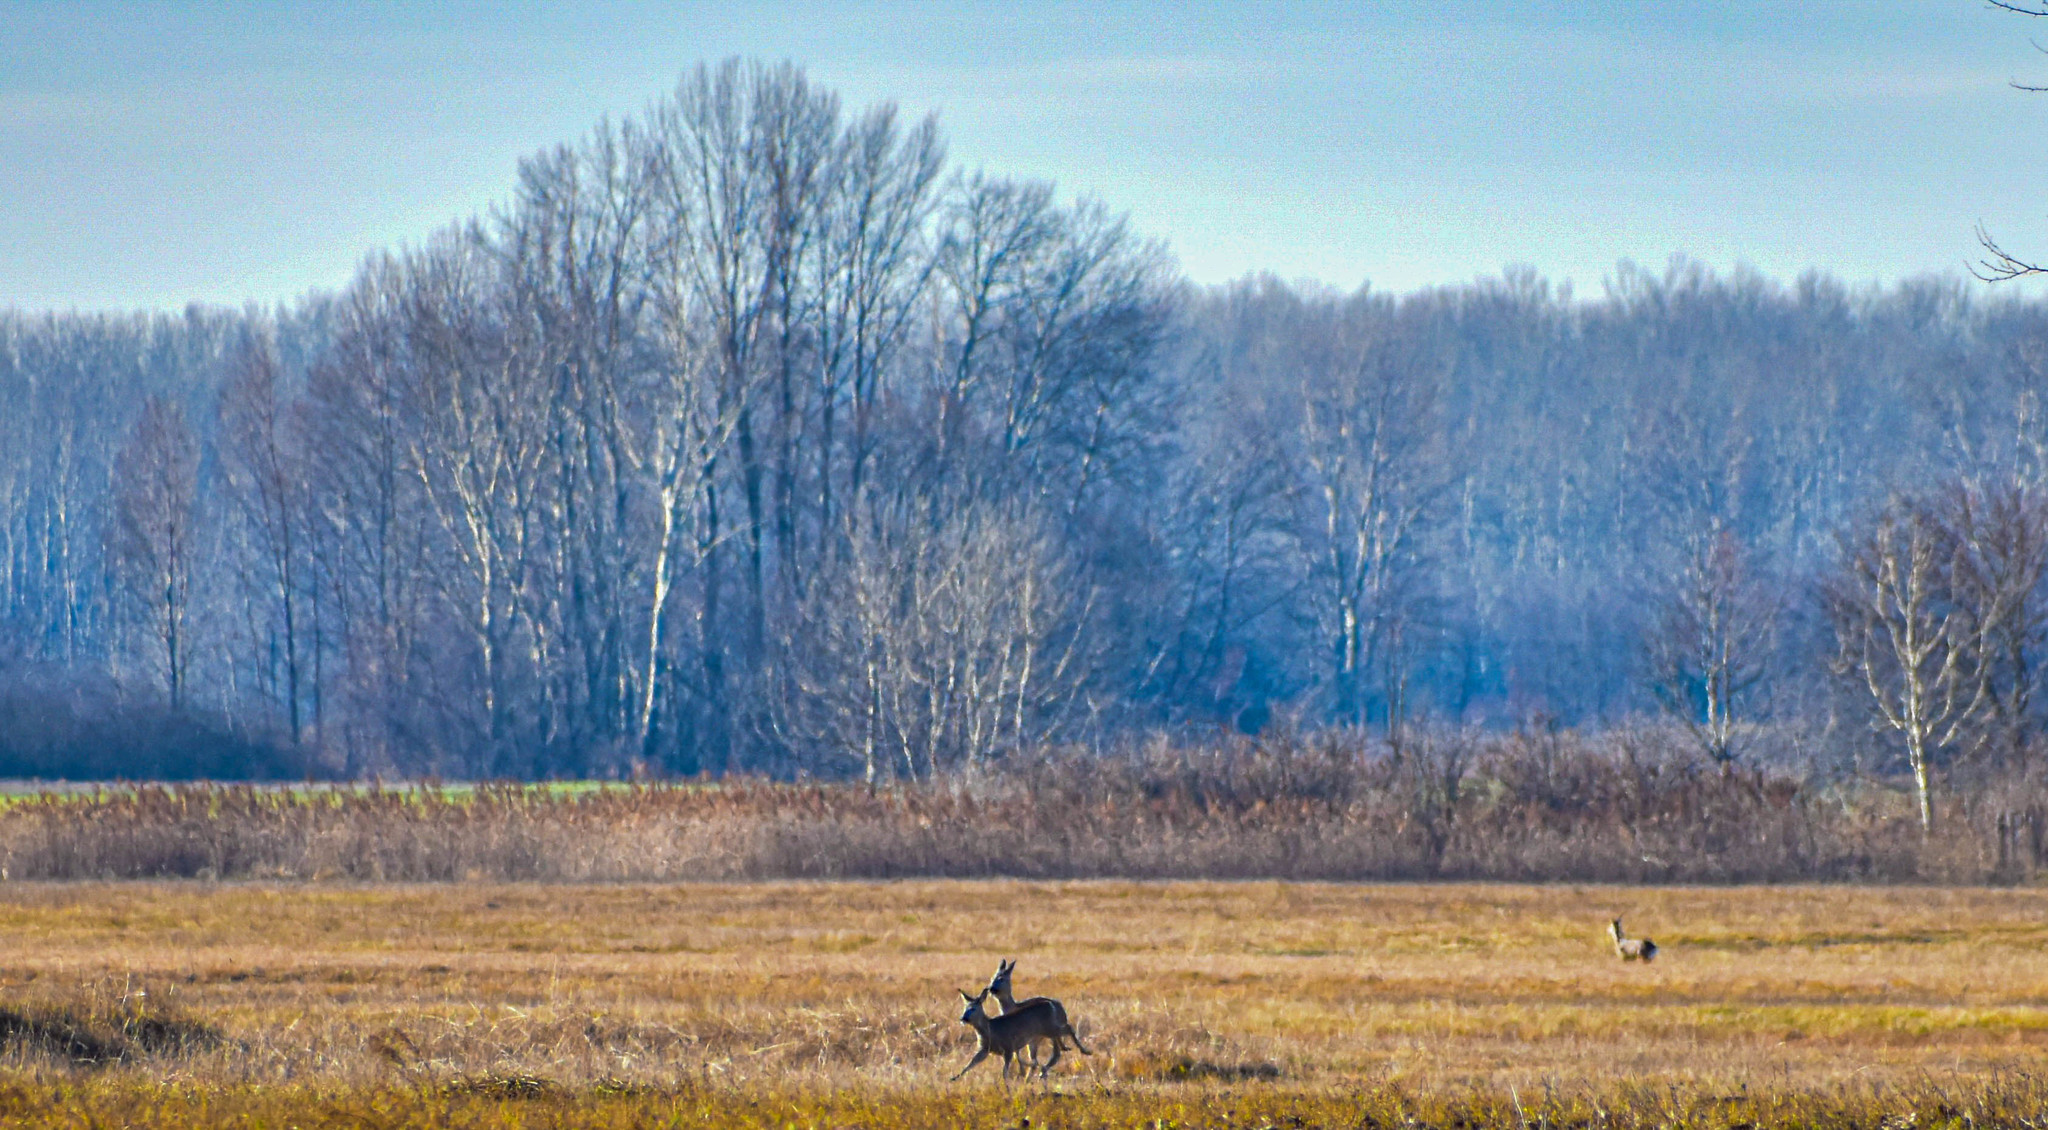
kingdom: Animalia
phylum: Chordata
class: Mammalia
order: Artiodactyla
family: Cervidae
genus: Capreolus
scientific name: Capreolus capreolus
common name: Western roe deer
